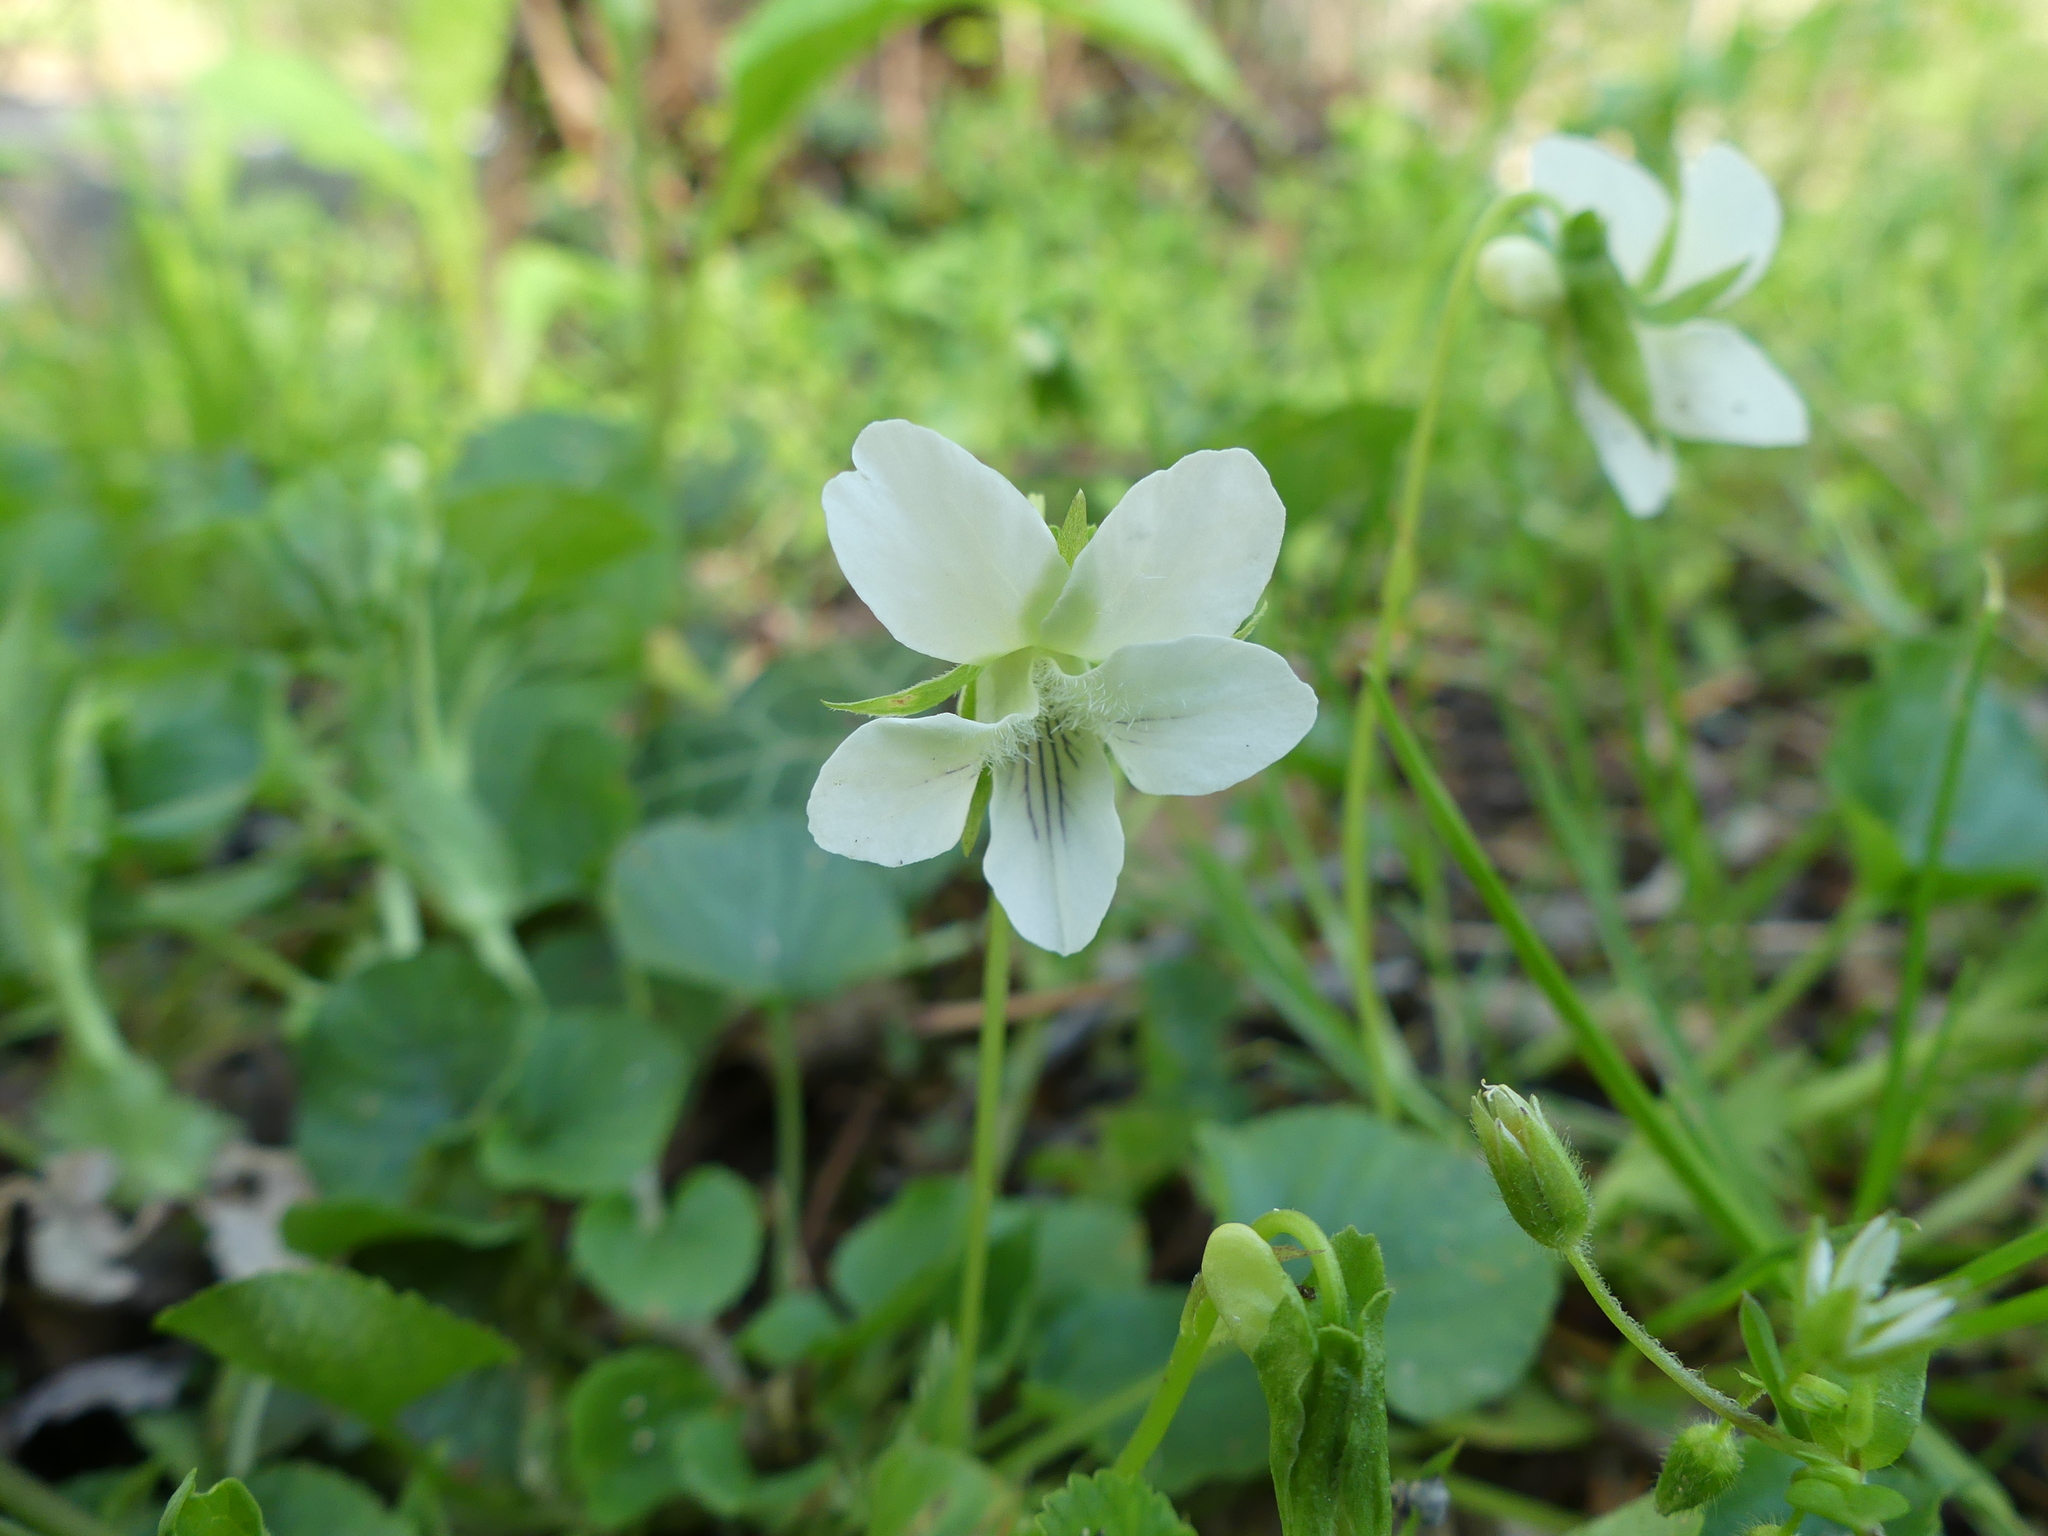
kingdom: Plantae
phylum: Tracheophyta
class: Magnoliopsida
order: Malpighiales
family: Violaceae
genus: Viola
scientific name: Viola striata
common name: Cream violet
